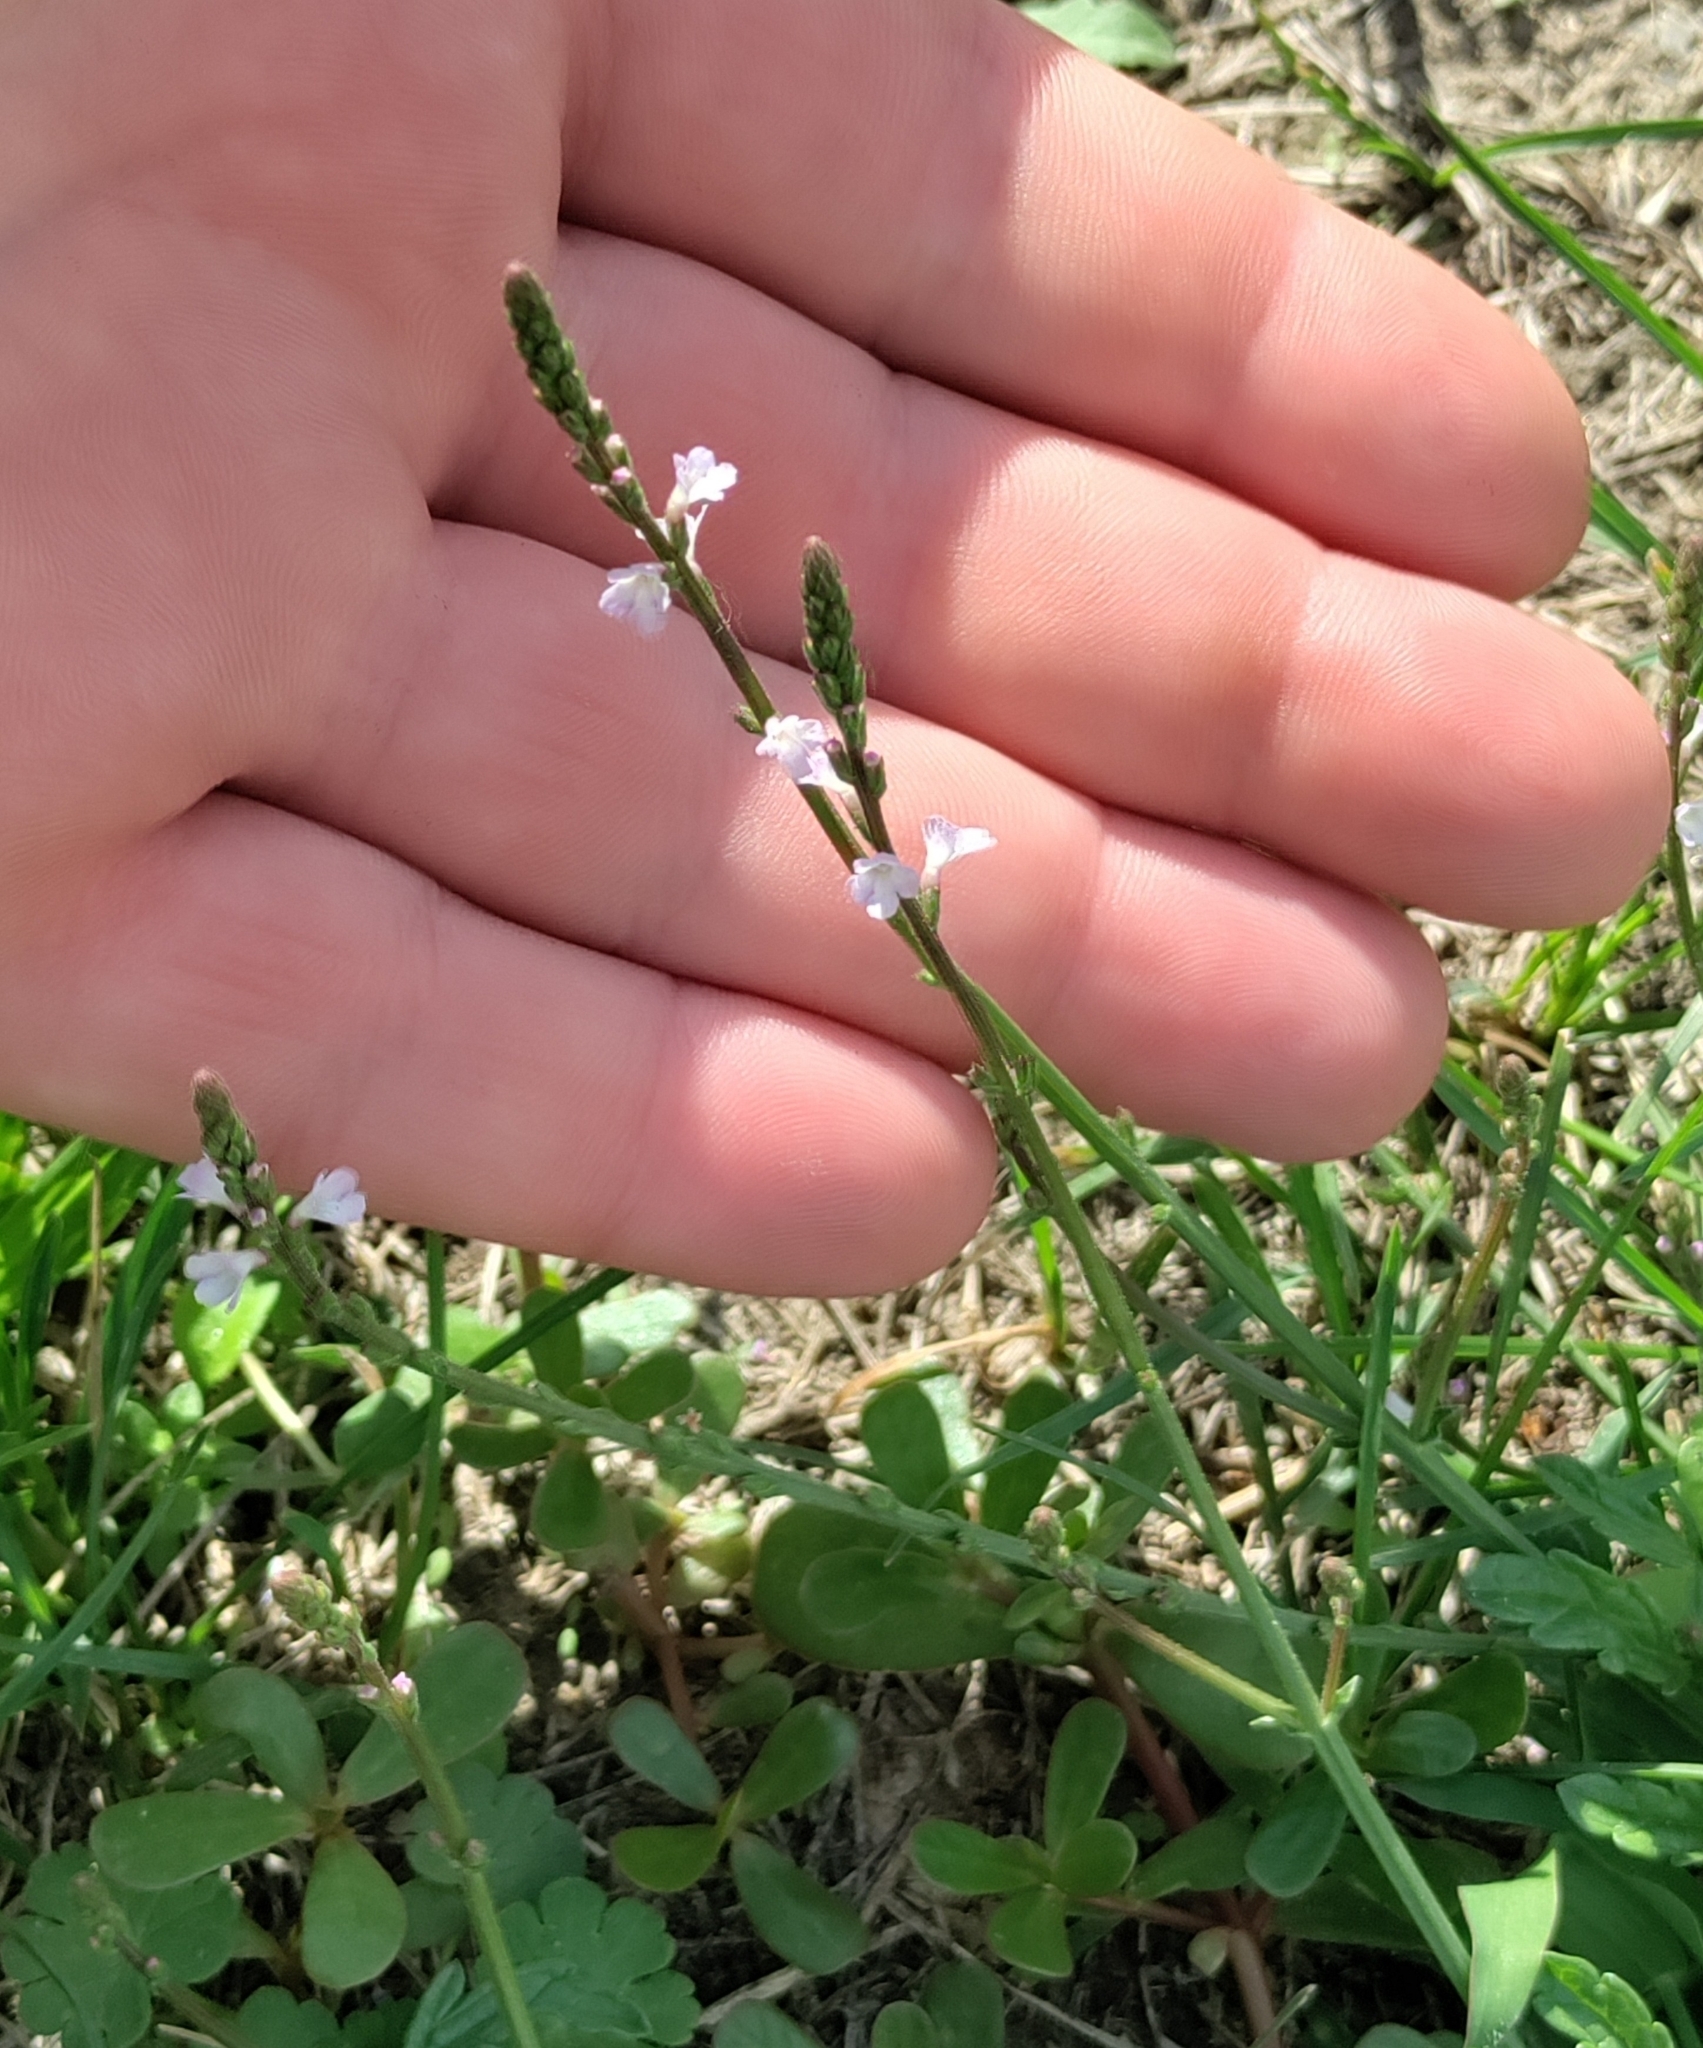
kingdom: Plantae
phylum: Tracheophyta
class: Magnoliopsida
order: Lamiales
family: Verbenaceae
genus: Verbena
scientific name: Verbena officinalis
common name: Vervain
